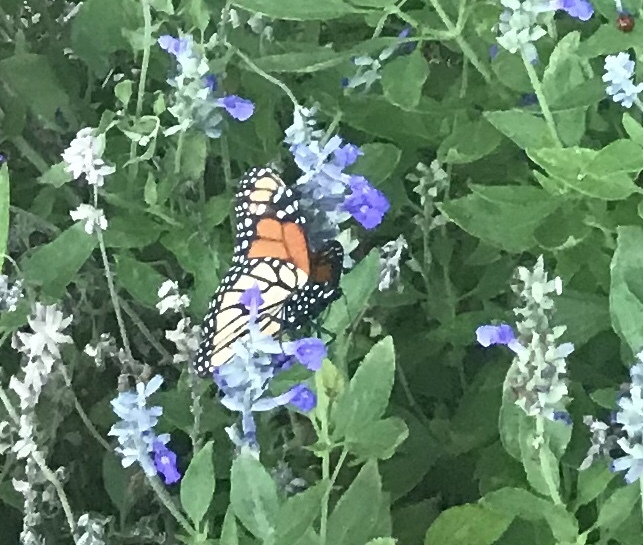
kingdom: Animalia
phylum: Arthropoda
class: Insecta
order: Lepidoptera
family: Nymphalidae
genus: Danaus
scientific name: Danaus plexippus
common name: Monarch
